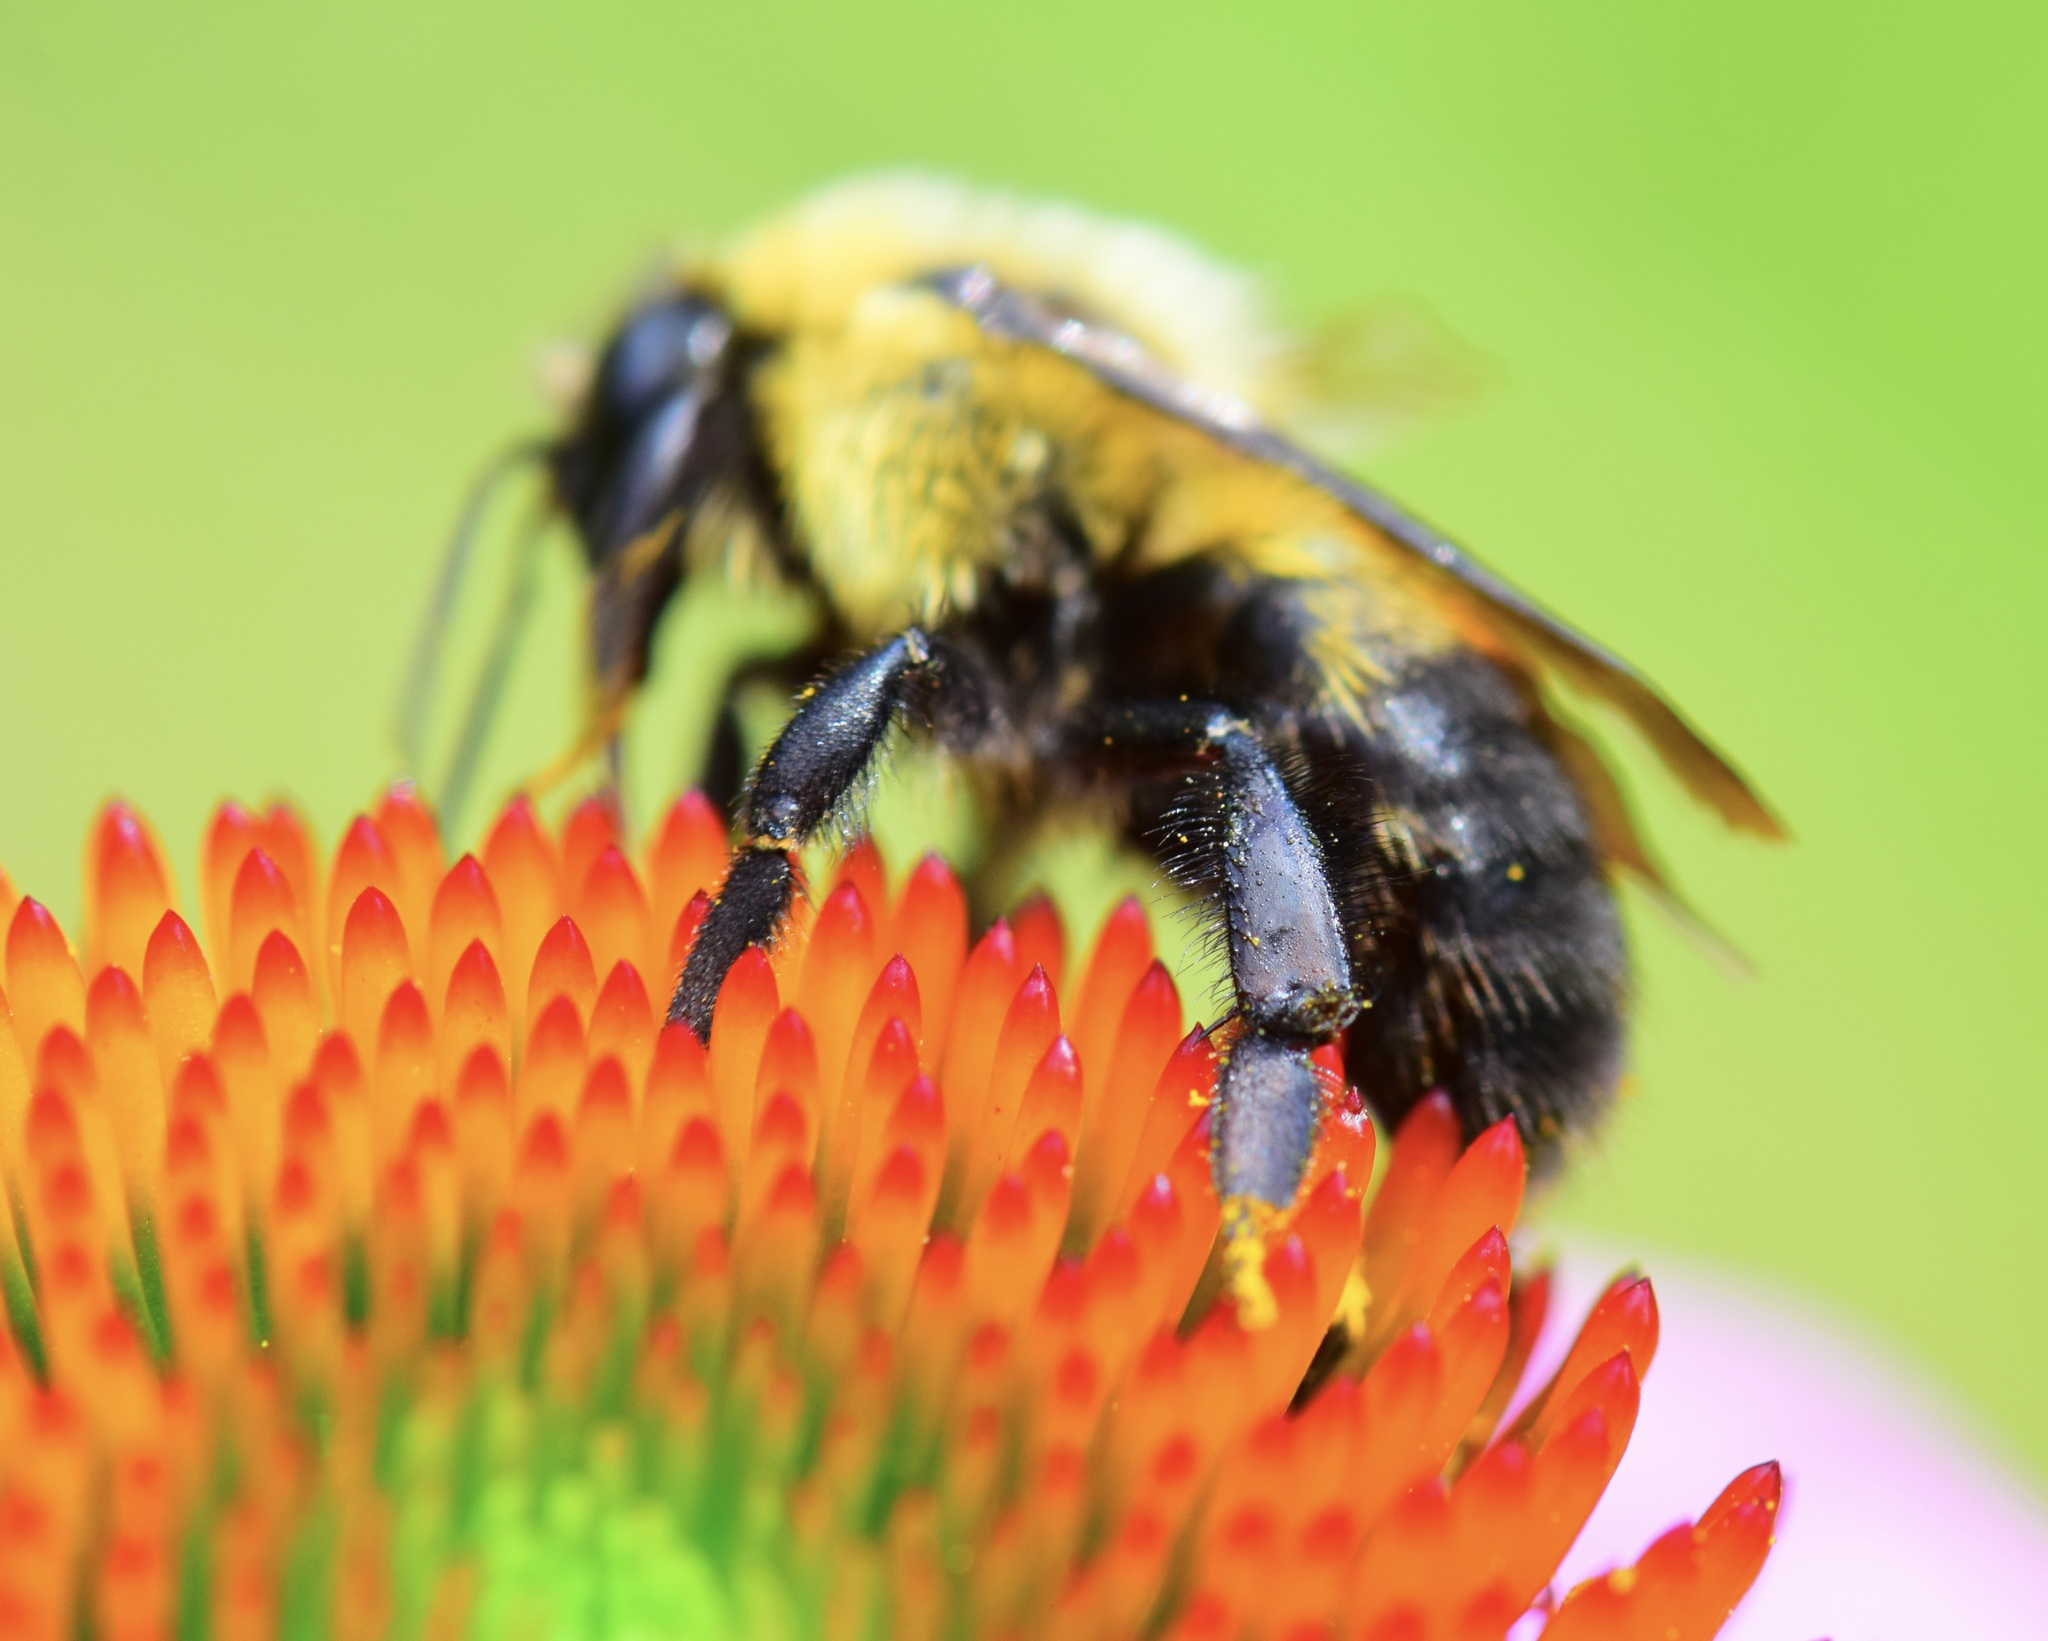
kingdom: Animalia
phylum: Arthropoda
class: Insecta
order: Hymenoptera
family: Apidae
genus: Bombus
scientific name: Bombus griseocollis
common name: Brown-belted bumble bee
